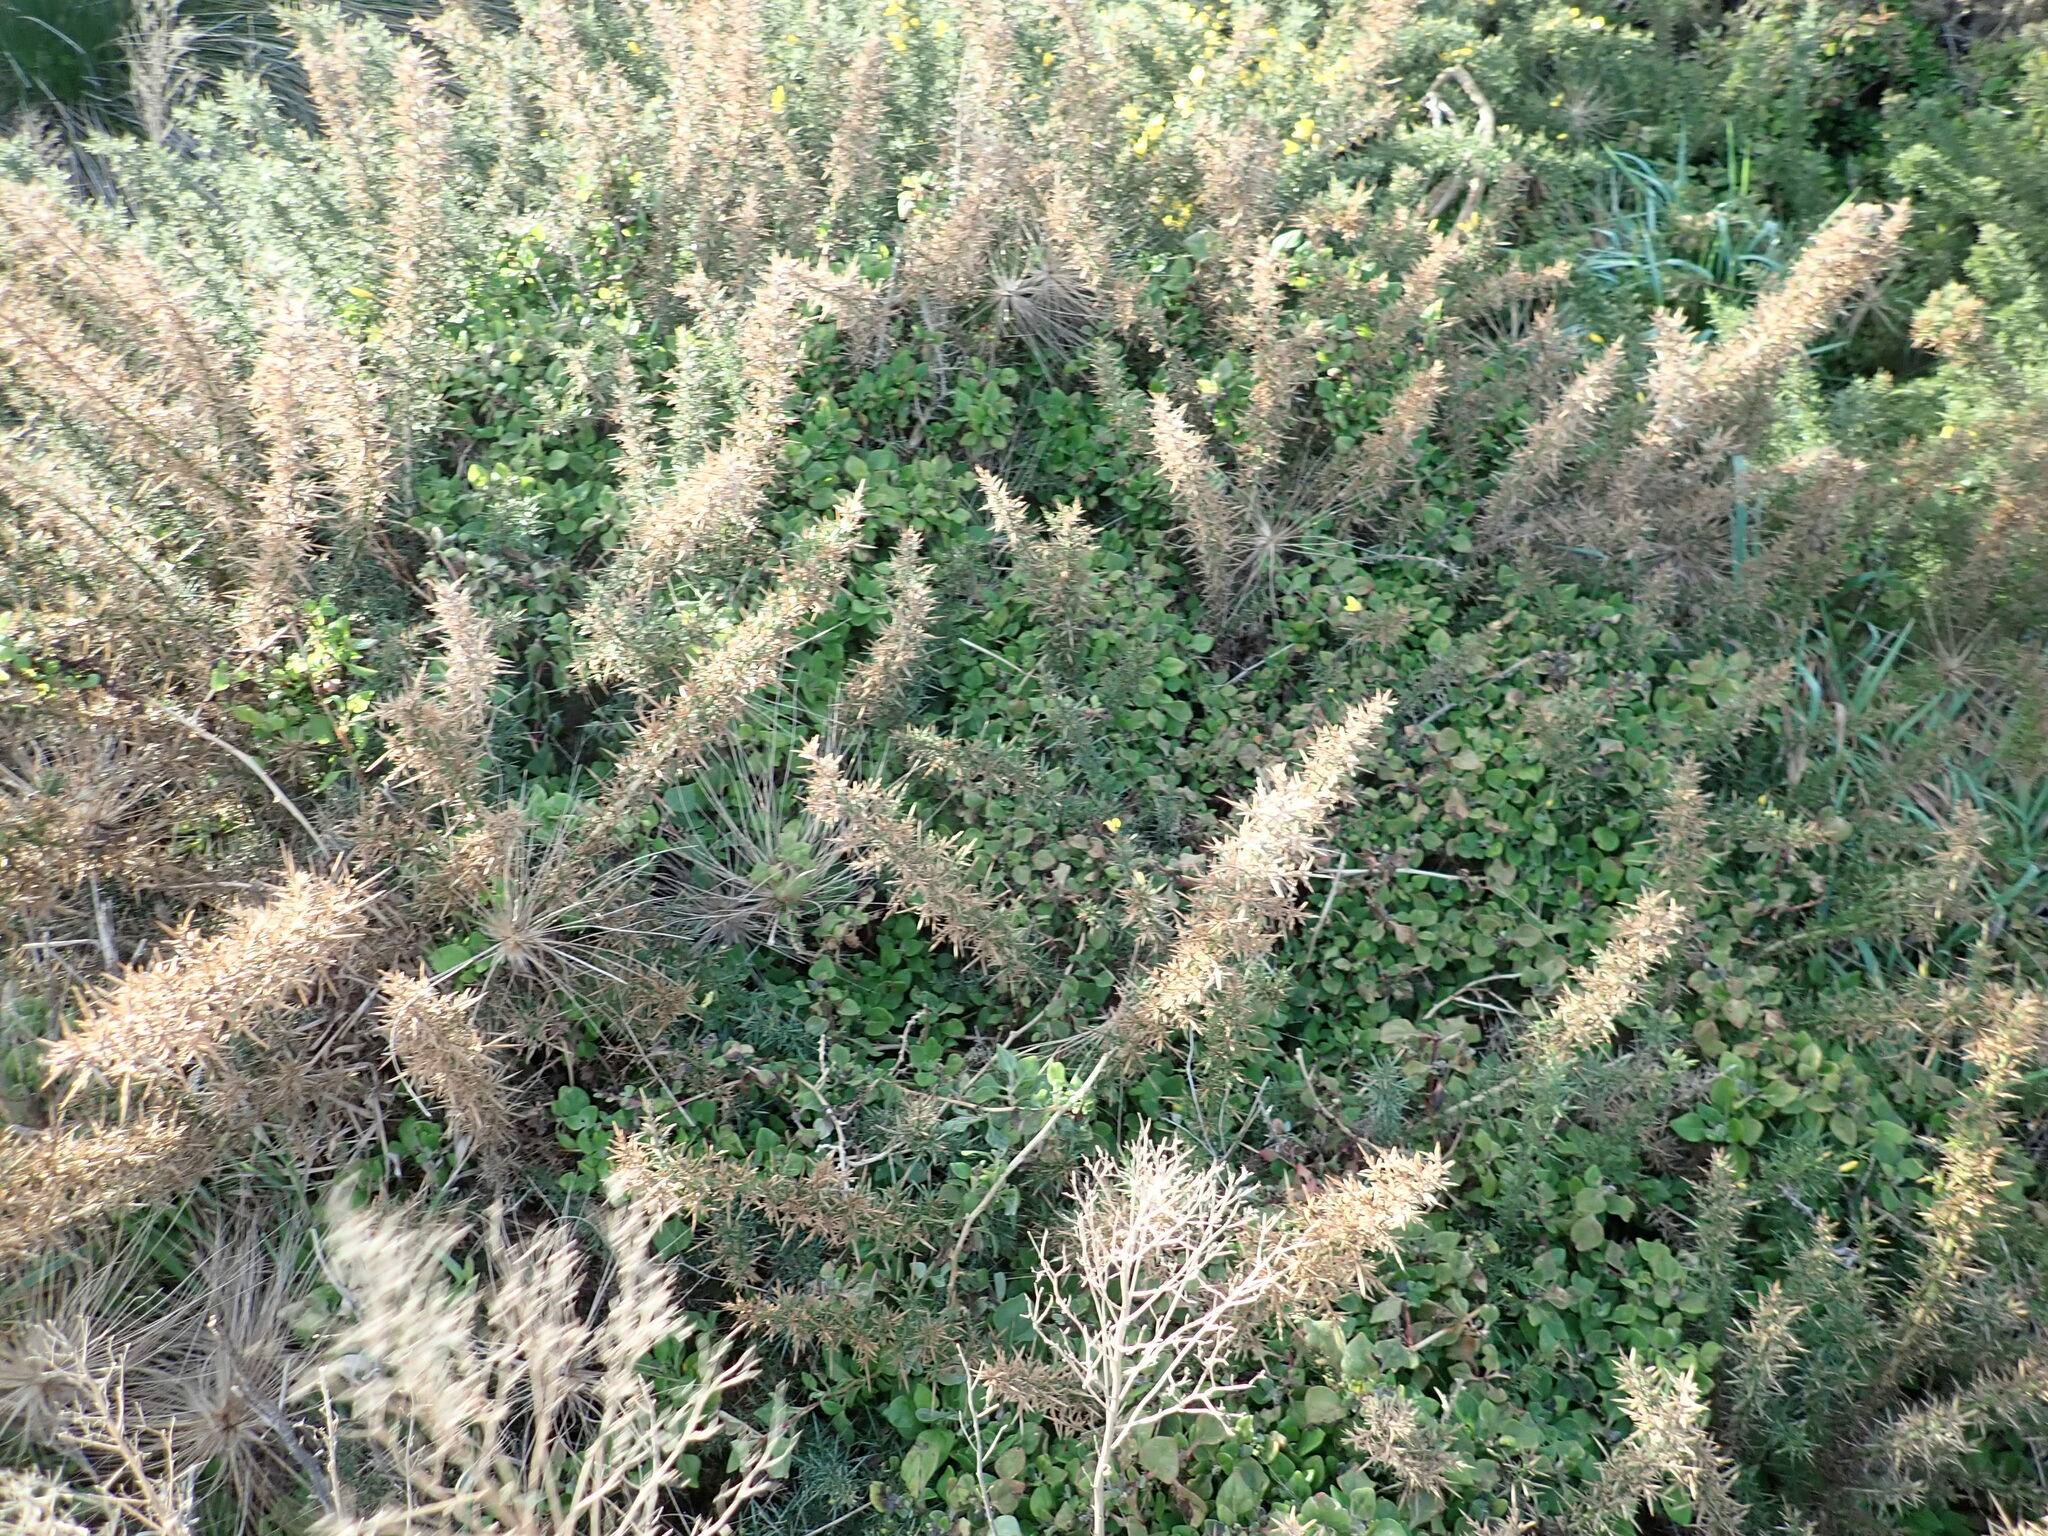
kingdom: Plantae
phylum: Tracheophyta
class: Magnoliopsida
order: Caryophyllales
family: Aizoaceae
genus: Tetragonia
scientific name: Tetragonia implexicoma
